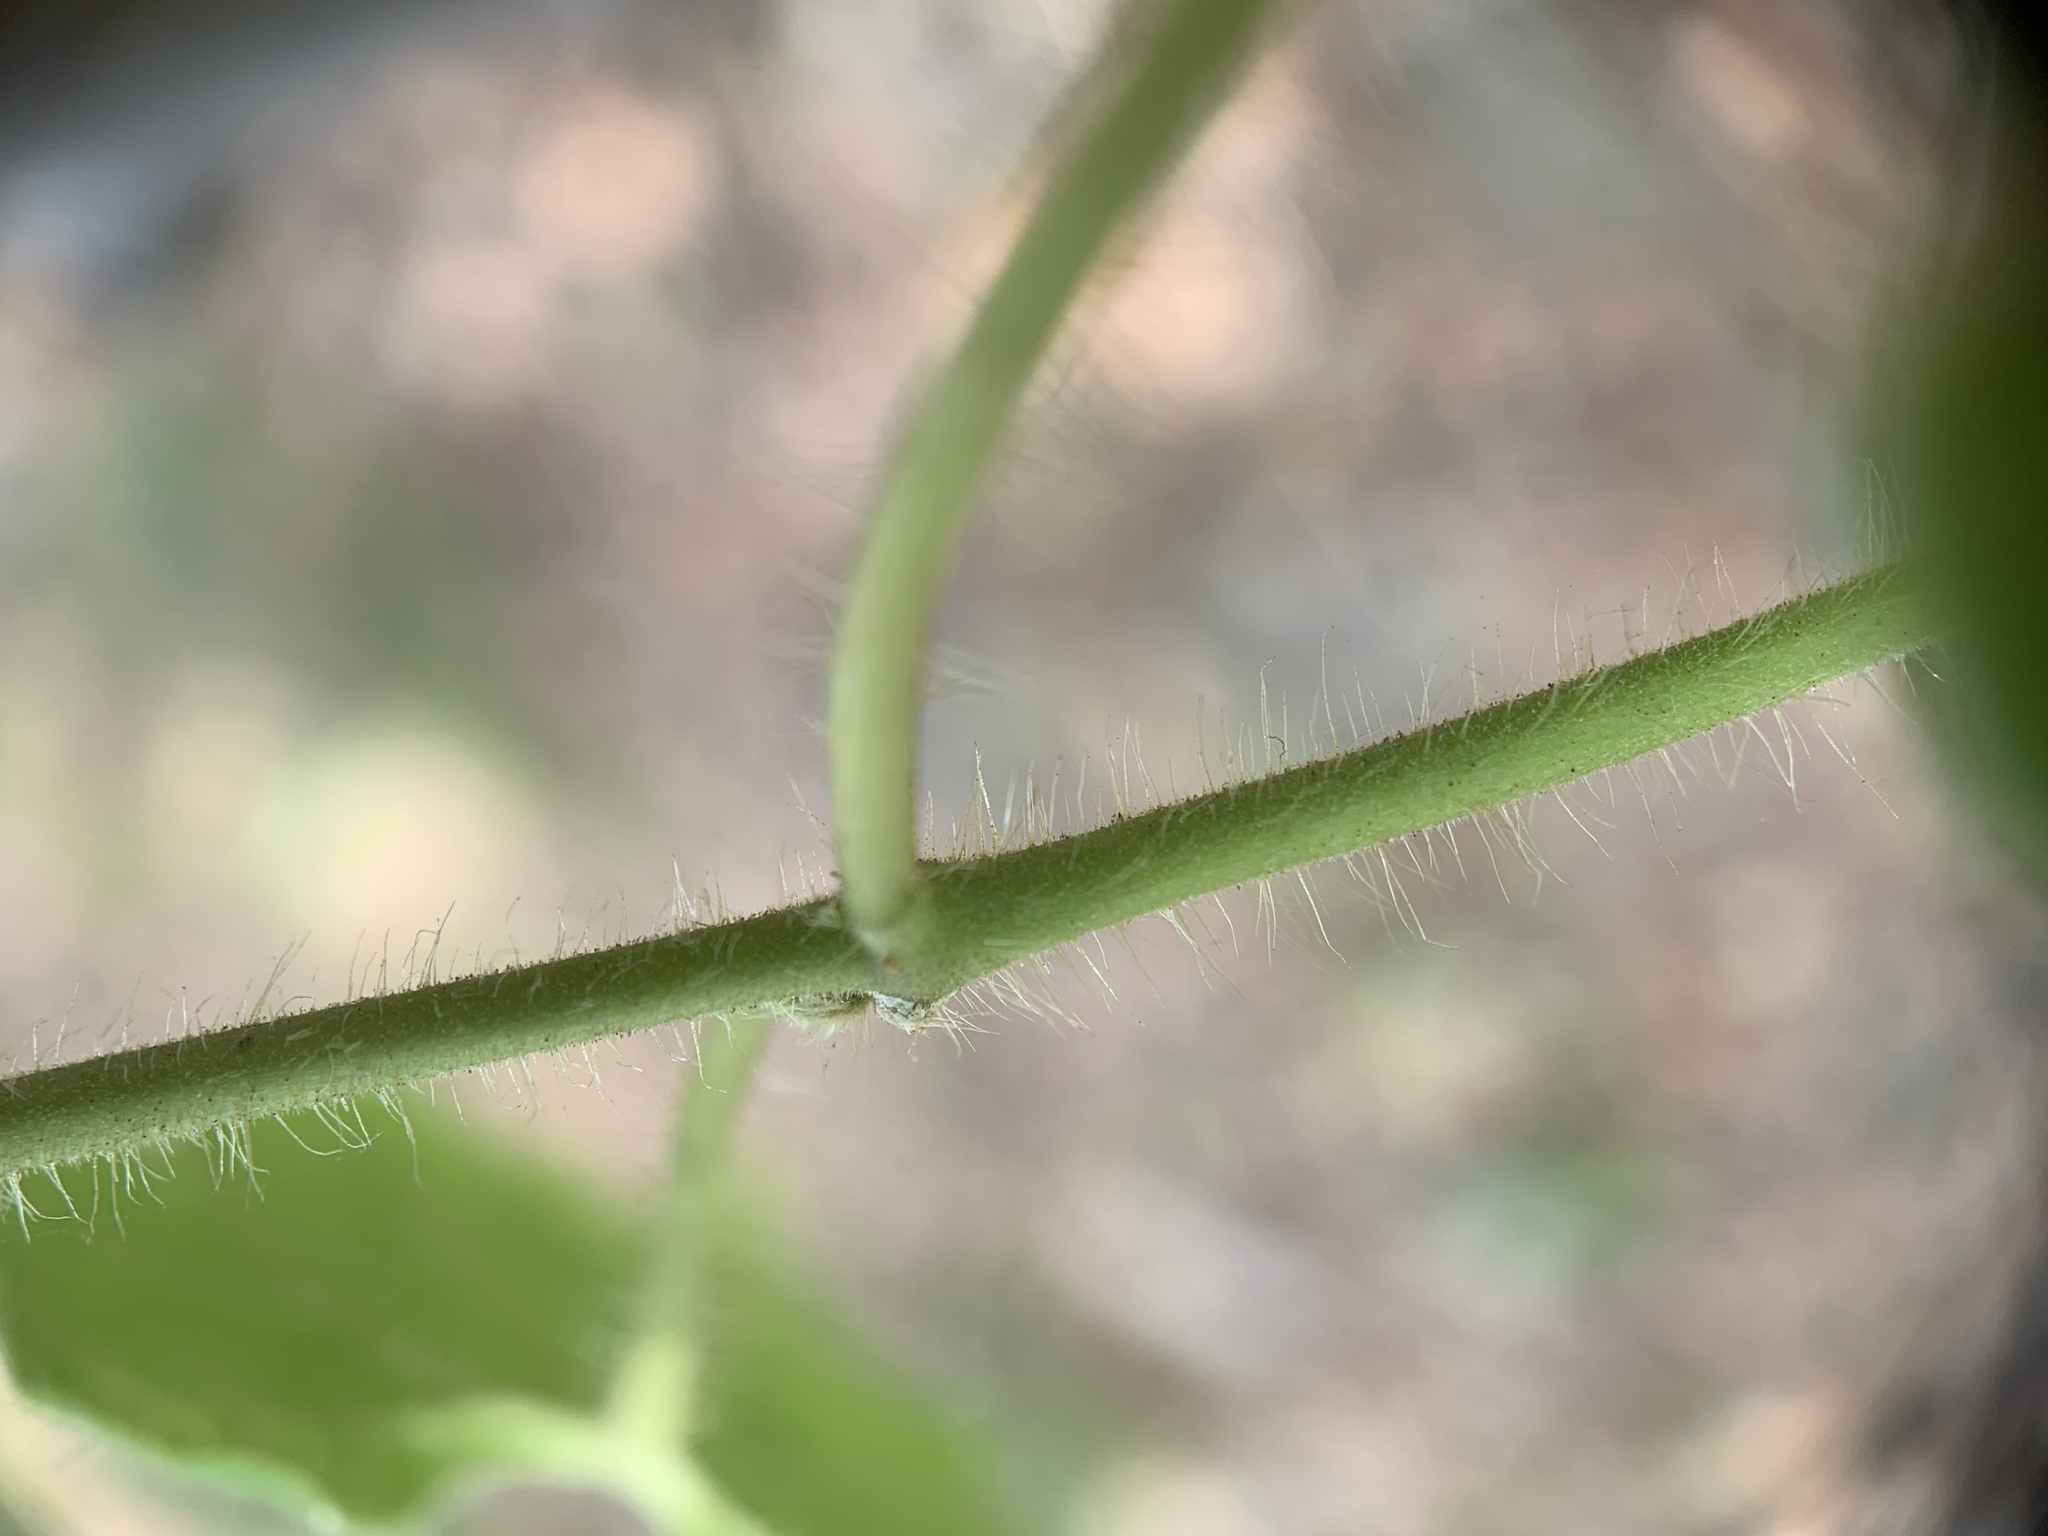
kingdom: Plantae
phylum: Tracheophyta
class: Magnoliopsida
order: Gentianales
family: Apocynaceae
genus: Dictyanthus
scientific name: Dictyanthus reticulatus
